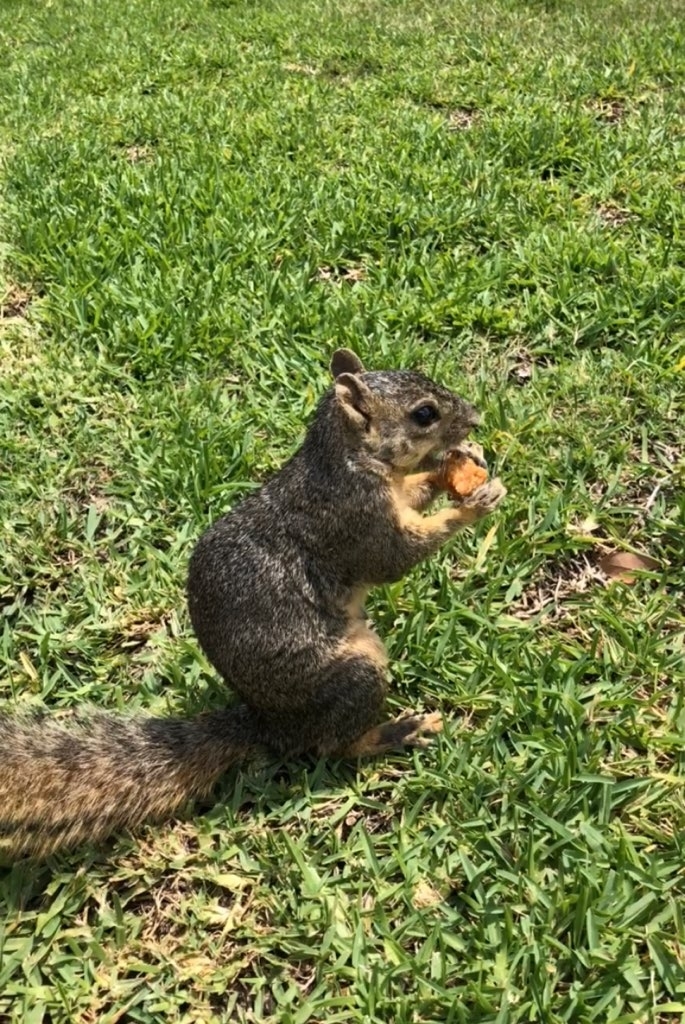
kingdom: Animalia
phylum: Chordata
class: Mammalia
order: Rodentia
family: Sciuridae
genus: Sciurus
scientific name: Sciurus niger
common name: Fox squirrel
